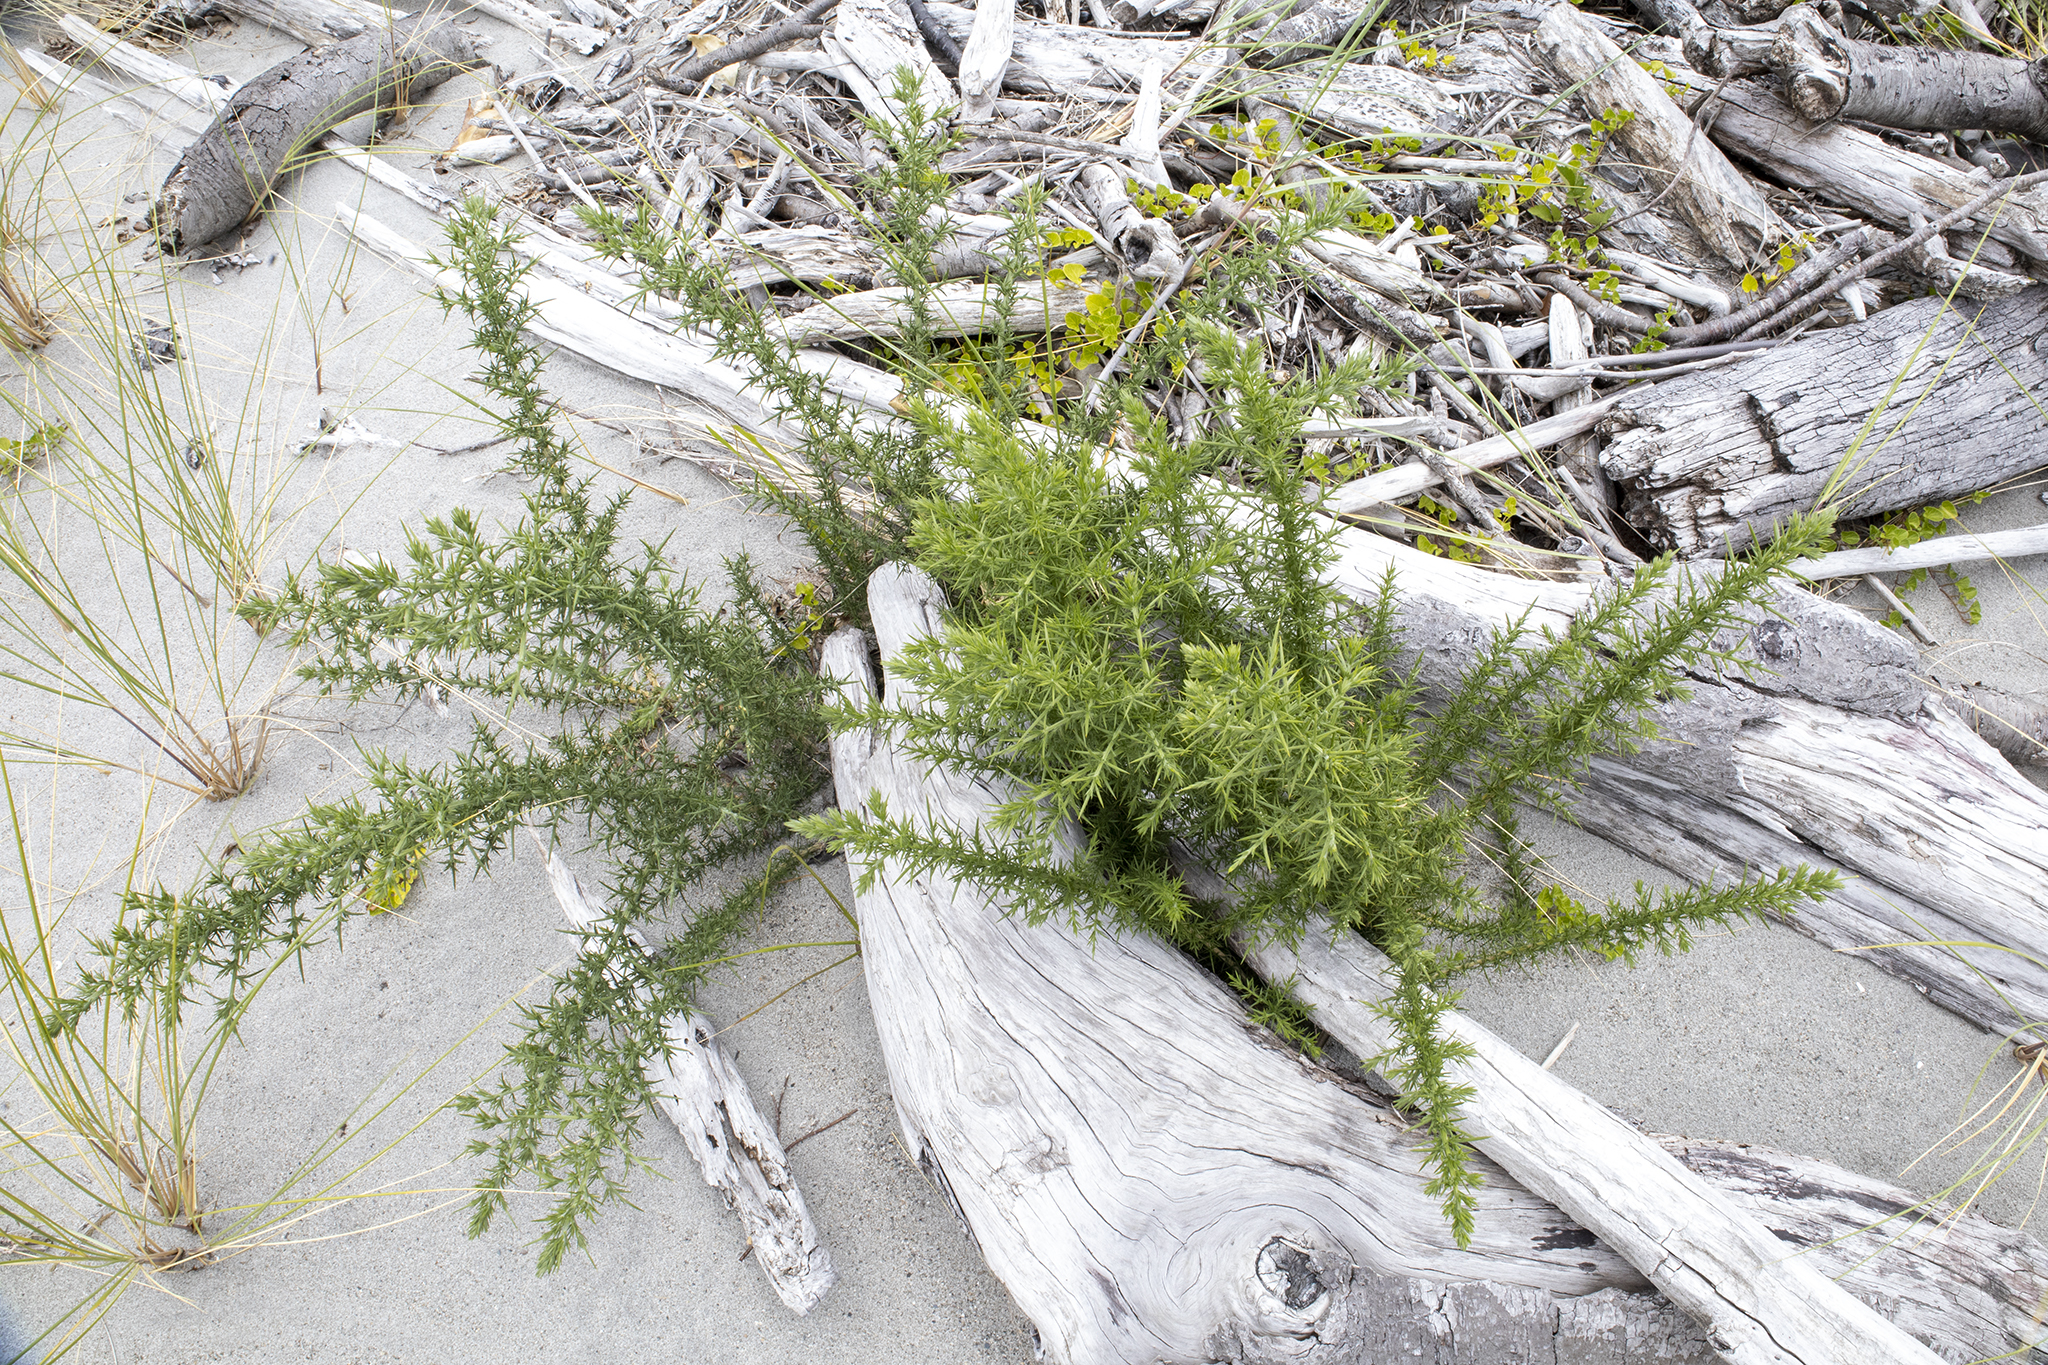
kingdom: Plantae
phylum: Tracheophyta
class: Magnoliopsida
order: Fabales
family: Fabaceae
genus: Ulex
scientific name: Ulex europaeus
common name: Common gorse
